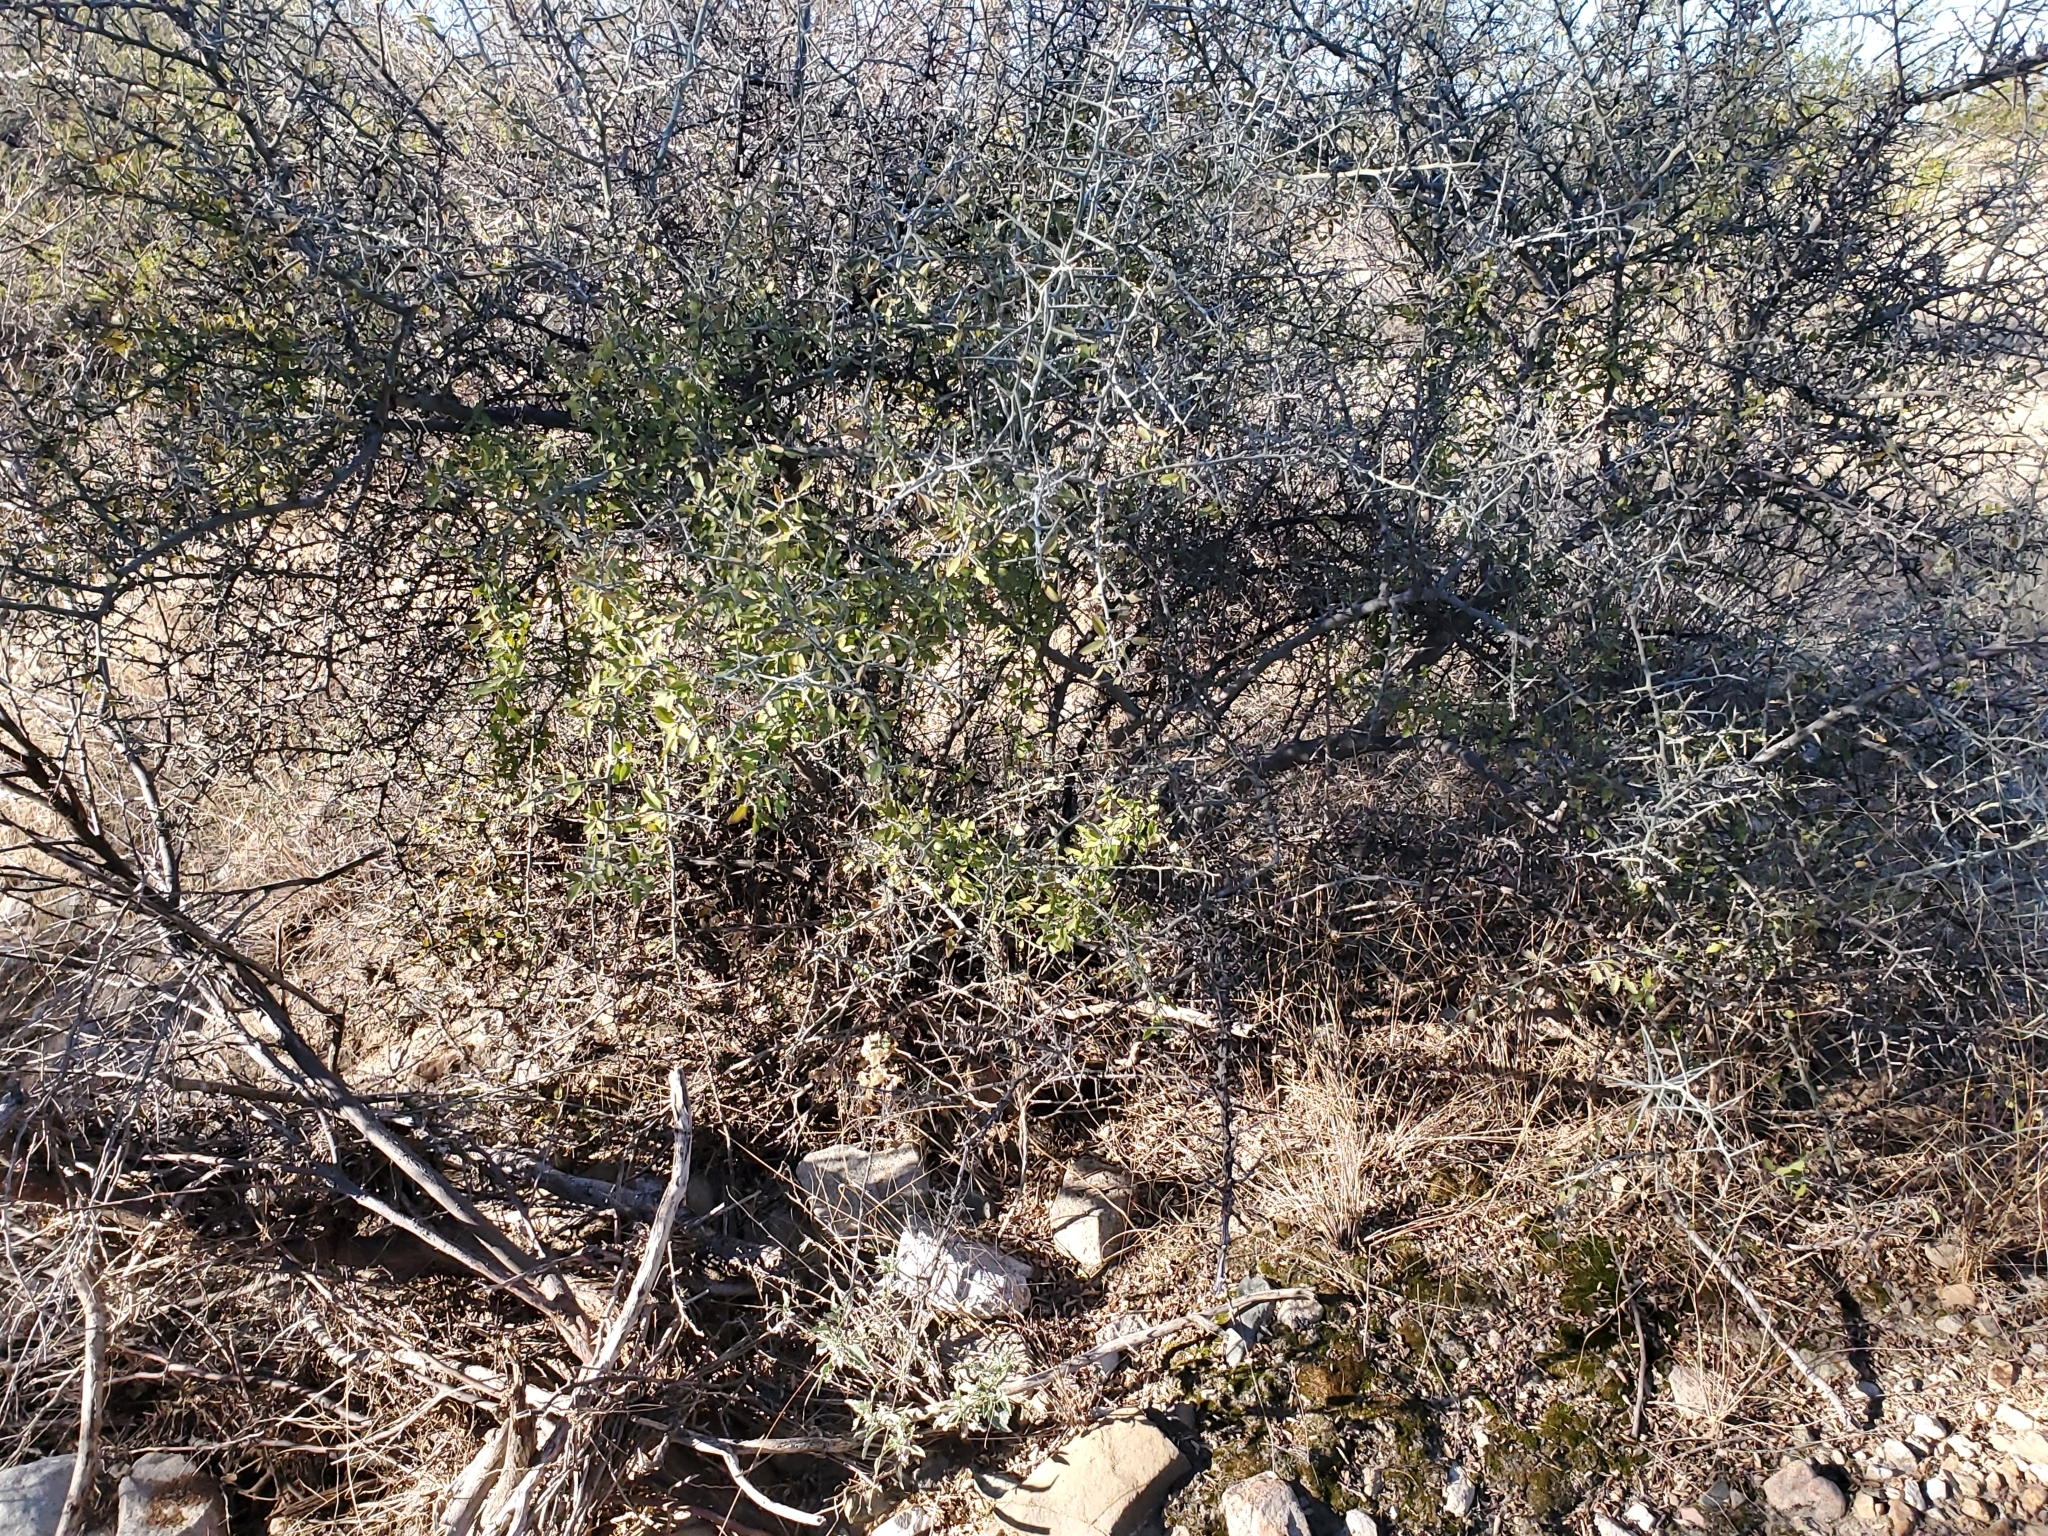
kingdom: Plantae
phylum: Tracheophyta
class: Magnoliopsida
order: Rosales
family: Rhamnaceae
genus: Sarcomphalus
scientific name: Sarcomphalus obtusifolius
